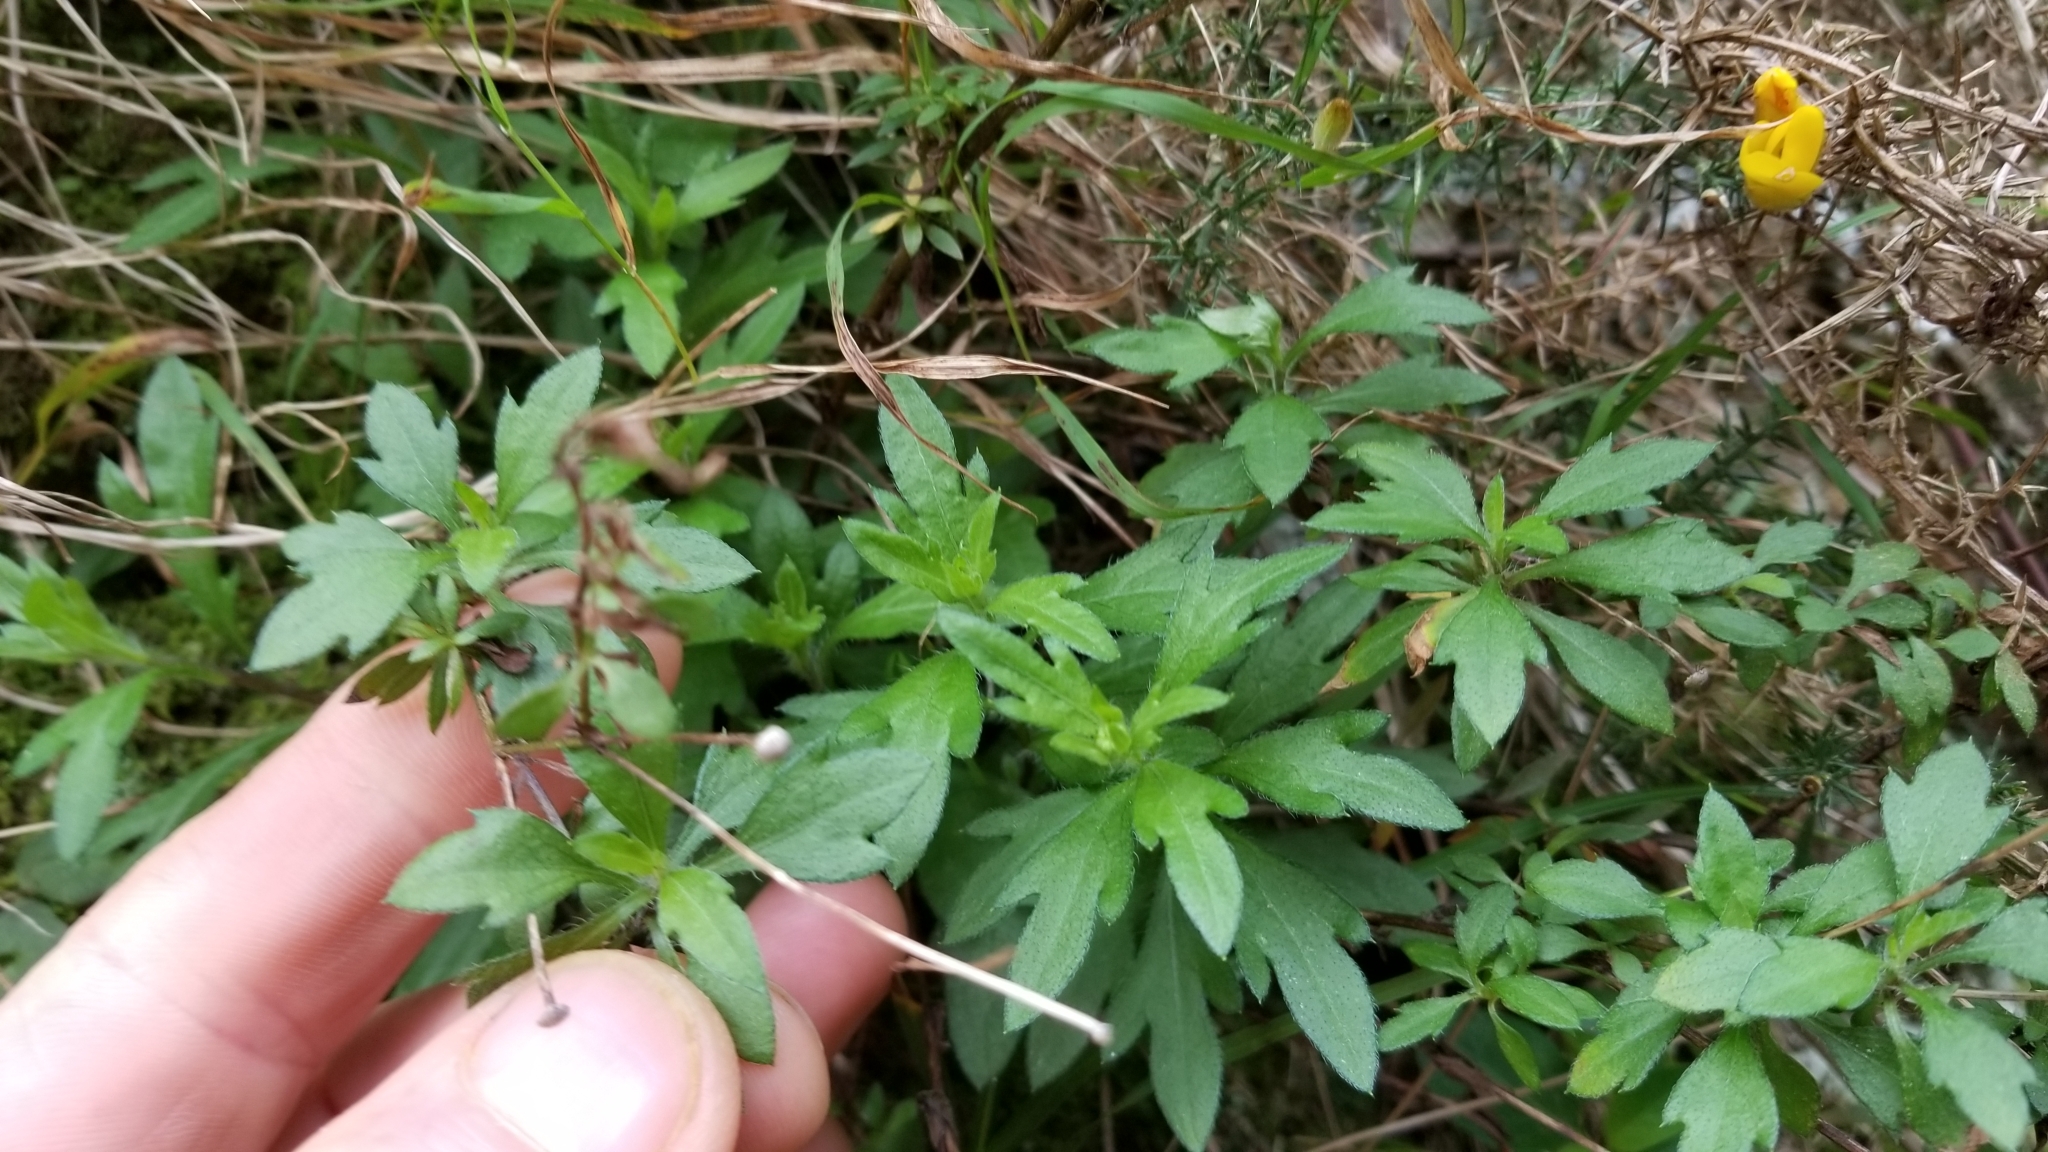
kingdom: Plantae
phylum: Tracheophyta
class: Magnoliopsida
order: Asterales
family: Asteraceae
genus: Erigeron
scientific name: Erigeron karvinskianus
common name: Mexican fleabane
